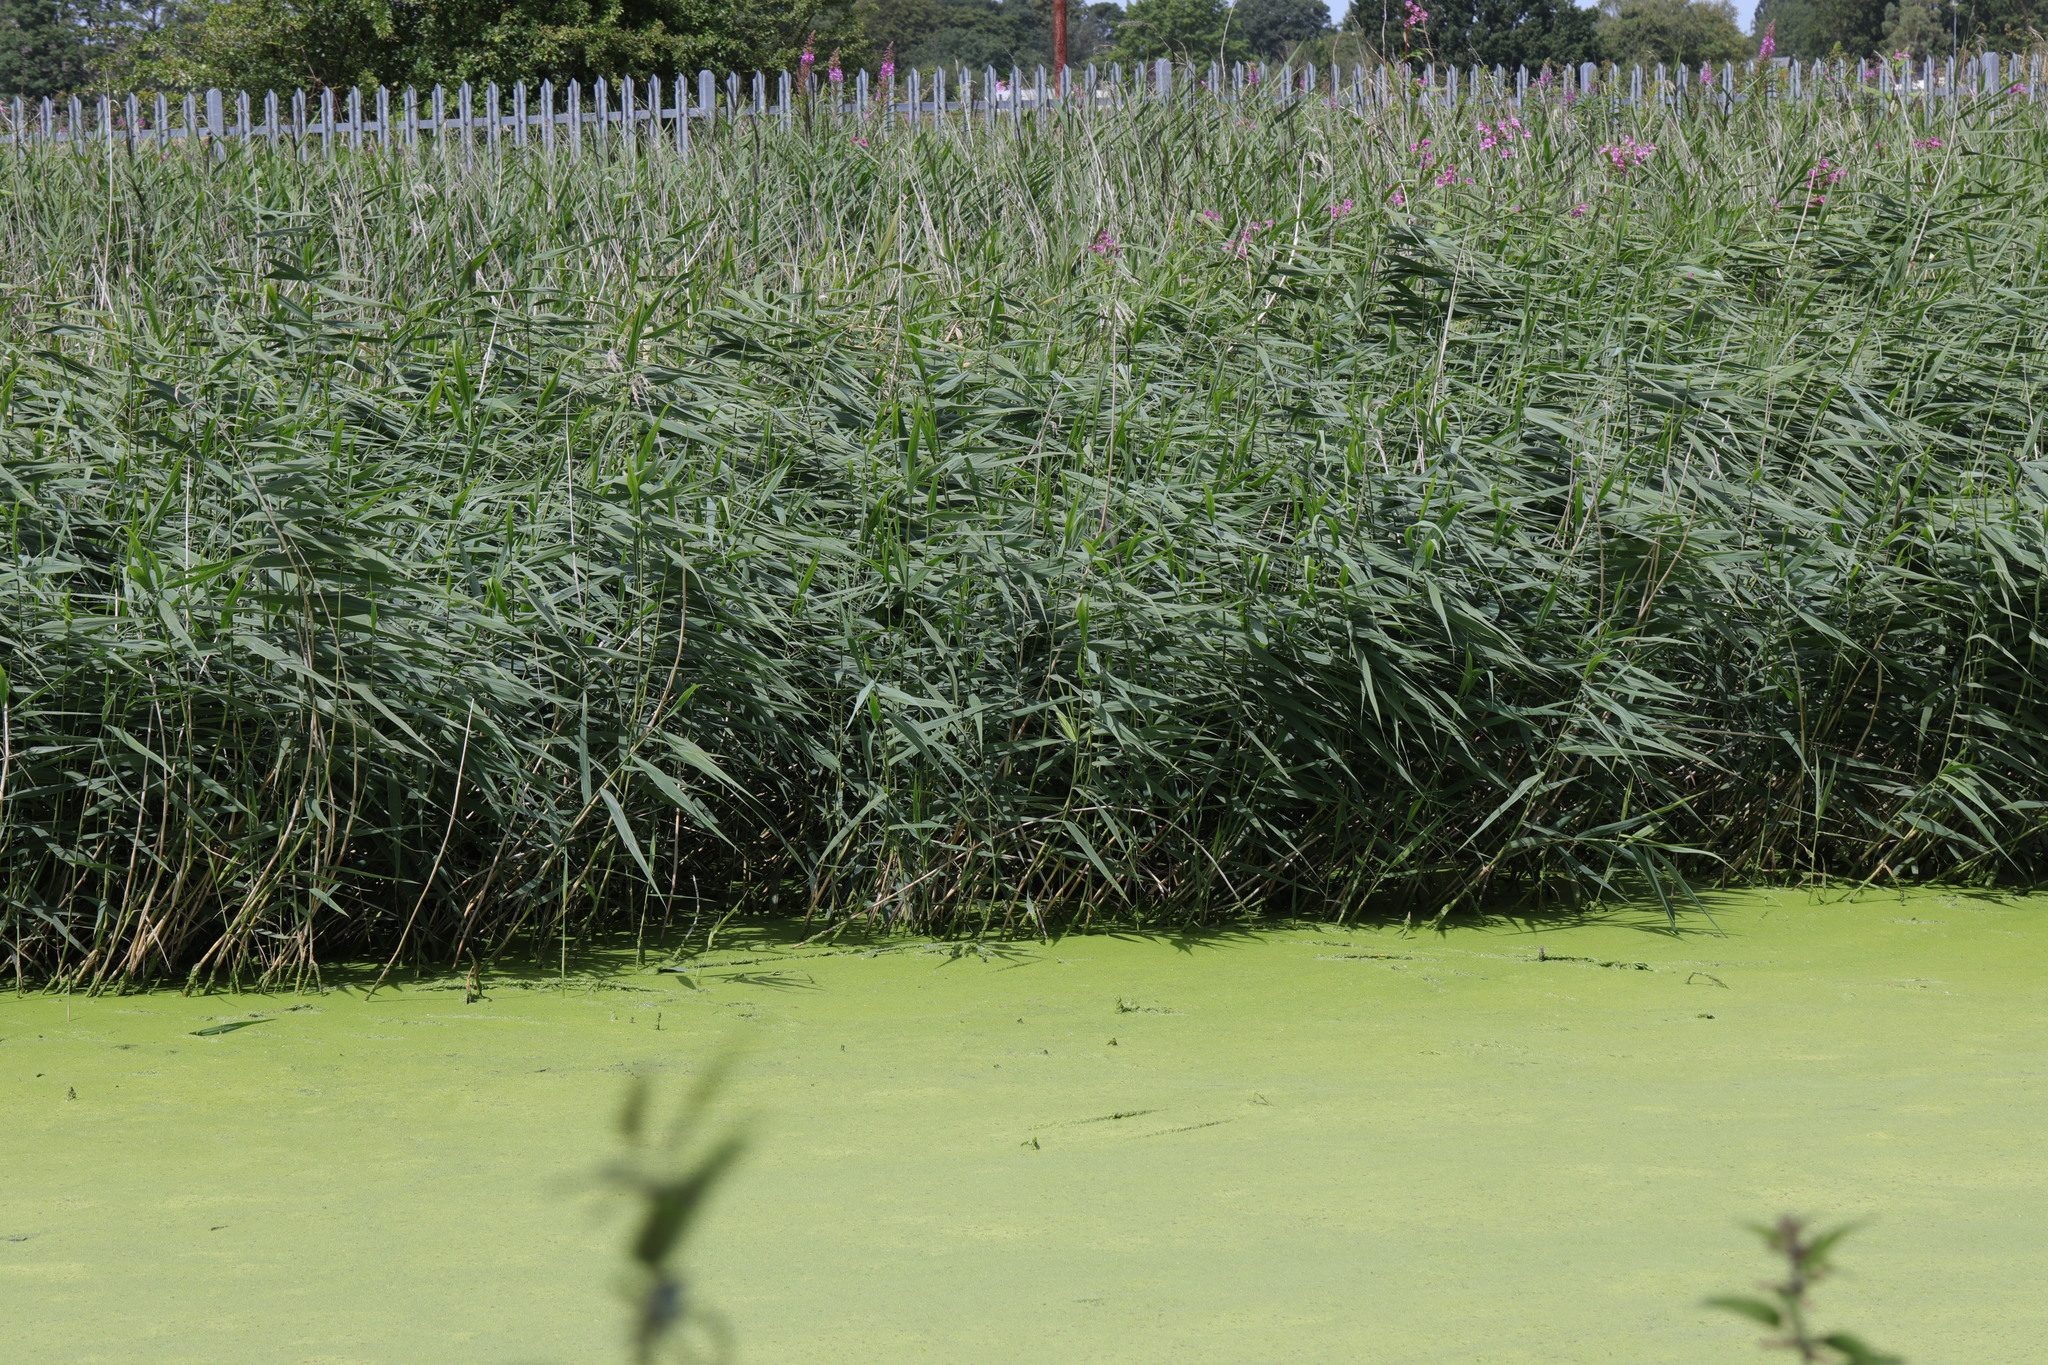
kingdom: Plantae
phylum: Tracheophyta
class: Liliopsida
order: Poales
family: Poaceae
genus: Phragmites
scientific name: Phragmites australis
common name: Common reed
